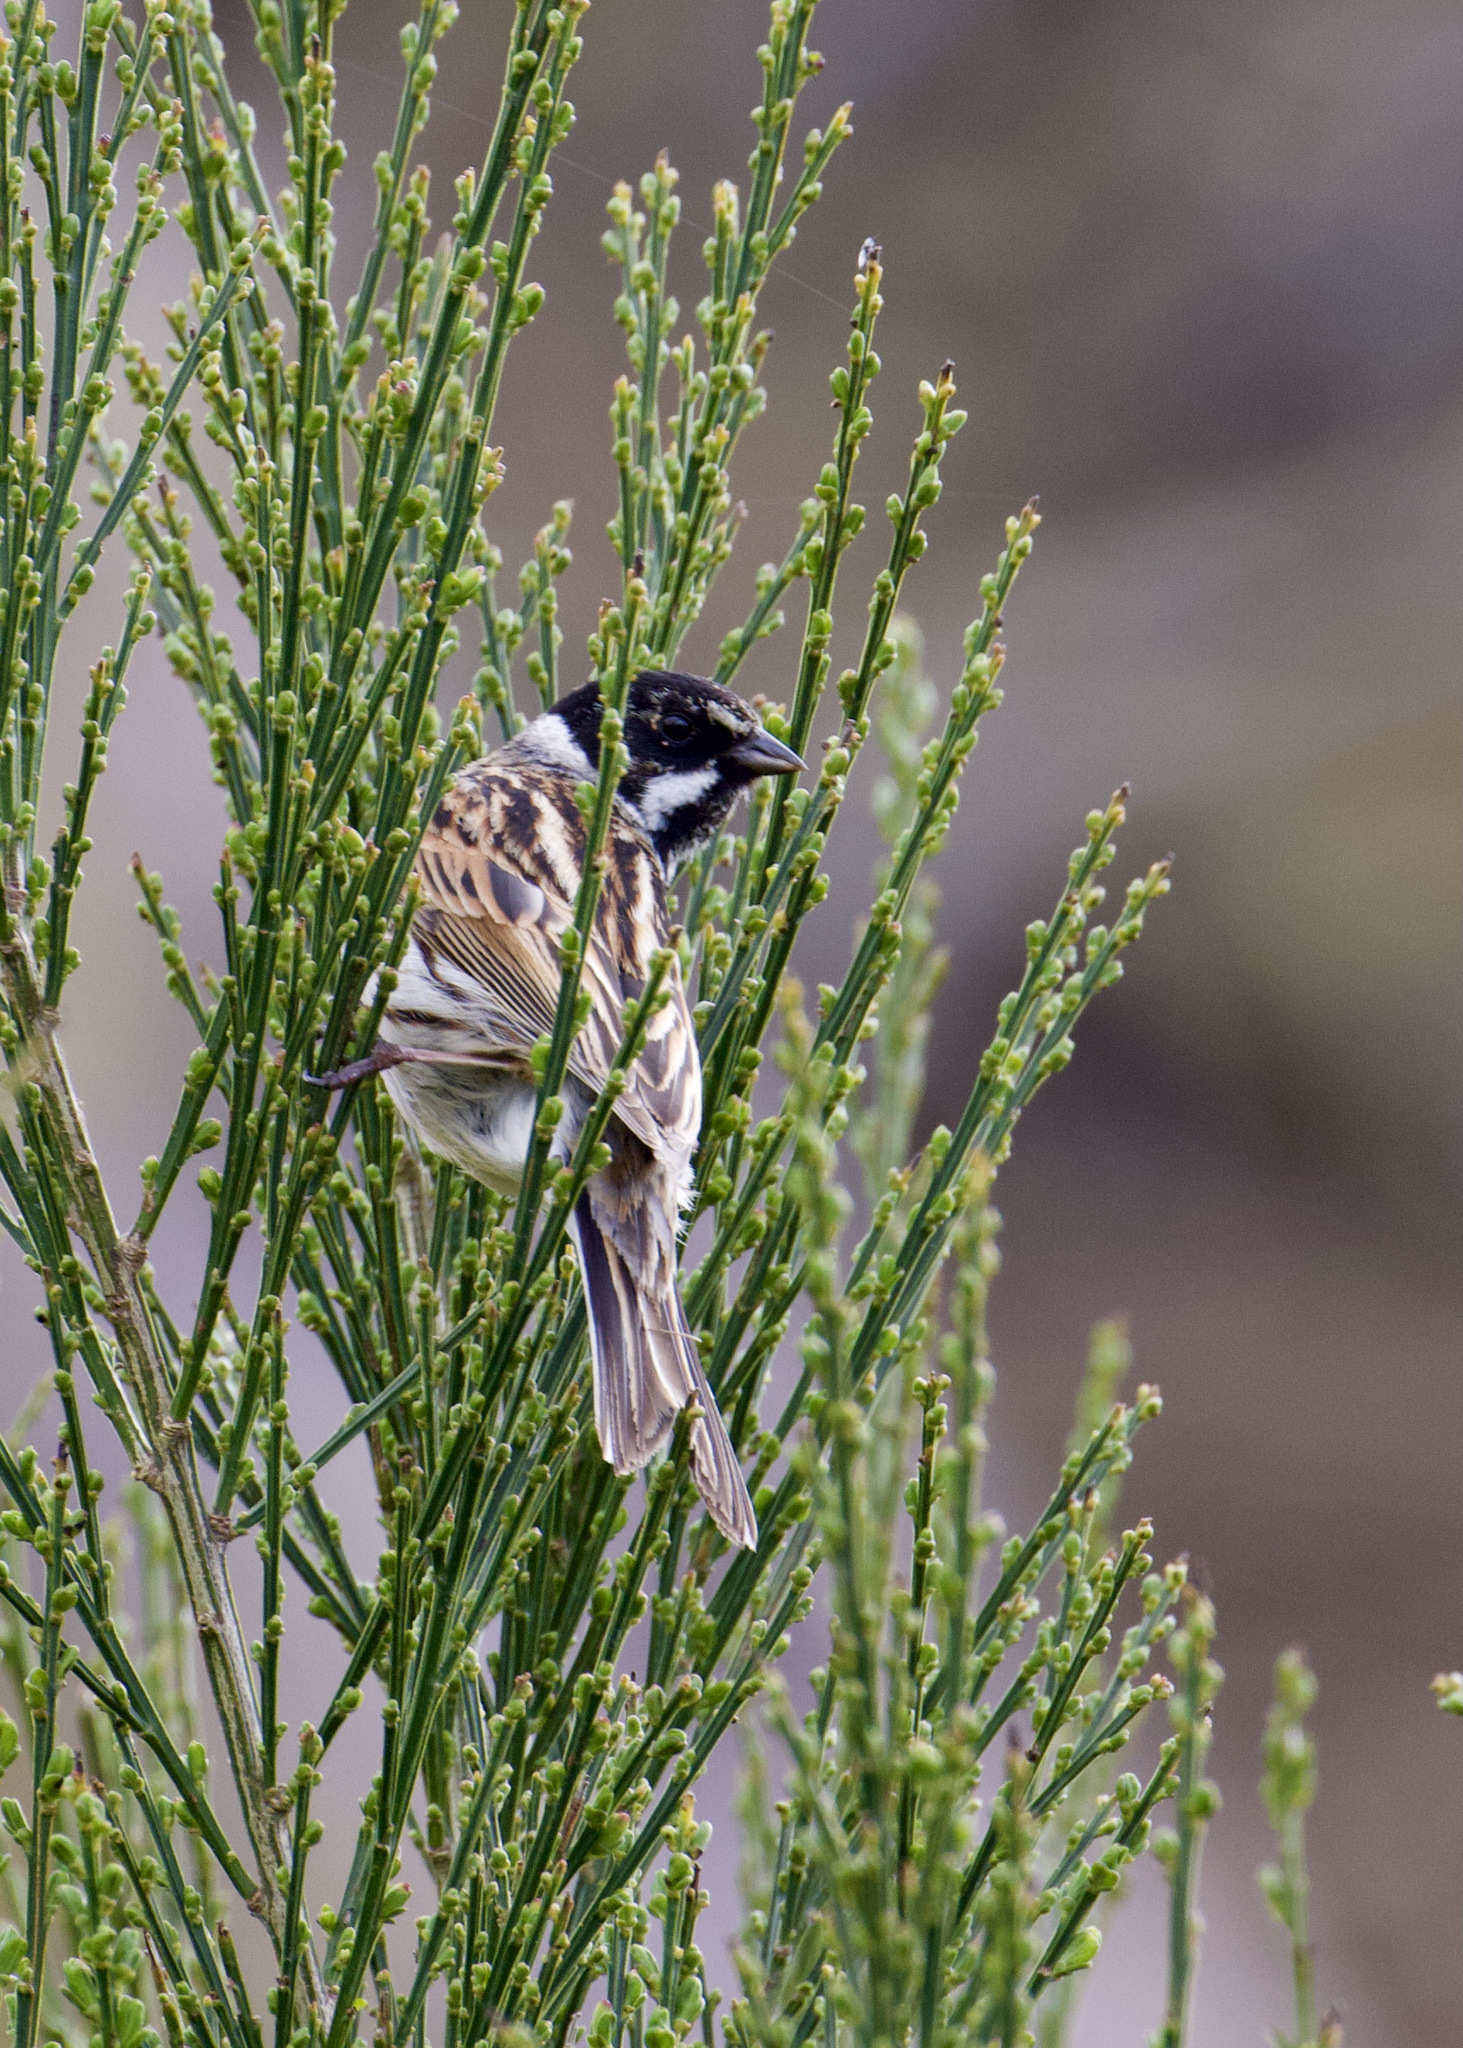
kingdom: Animalia
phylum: Chordata
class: Aves
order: Passeriformes
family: Emberizidae
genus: Emberiza
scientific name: Emberiza schoeniclus
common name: Reed bunting
